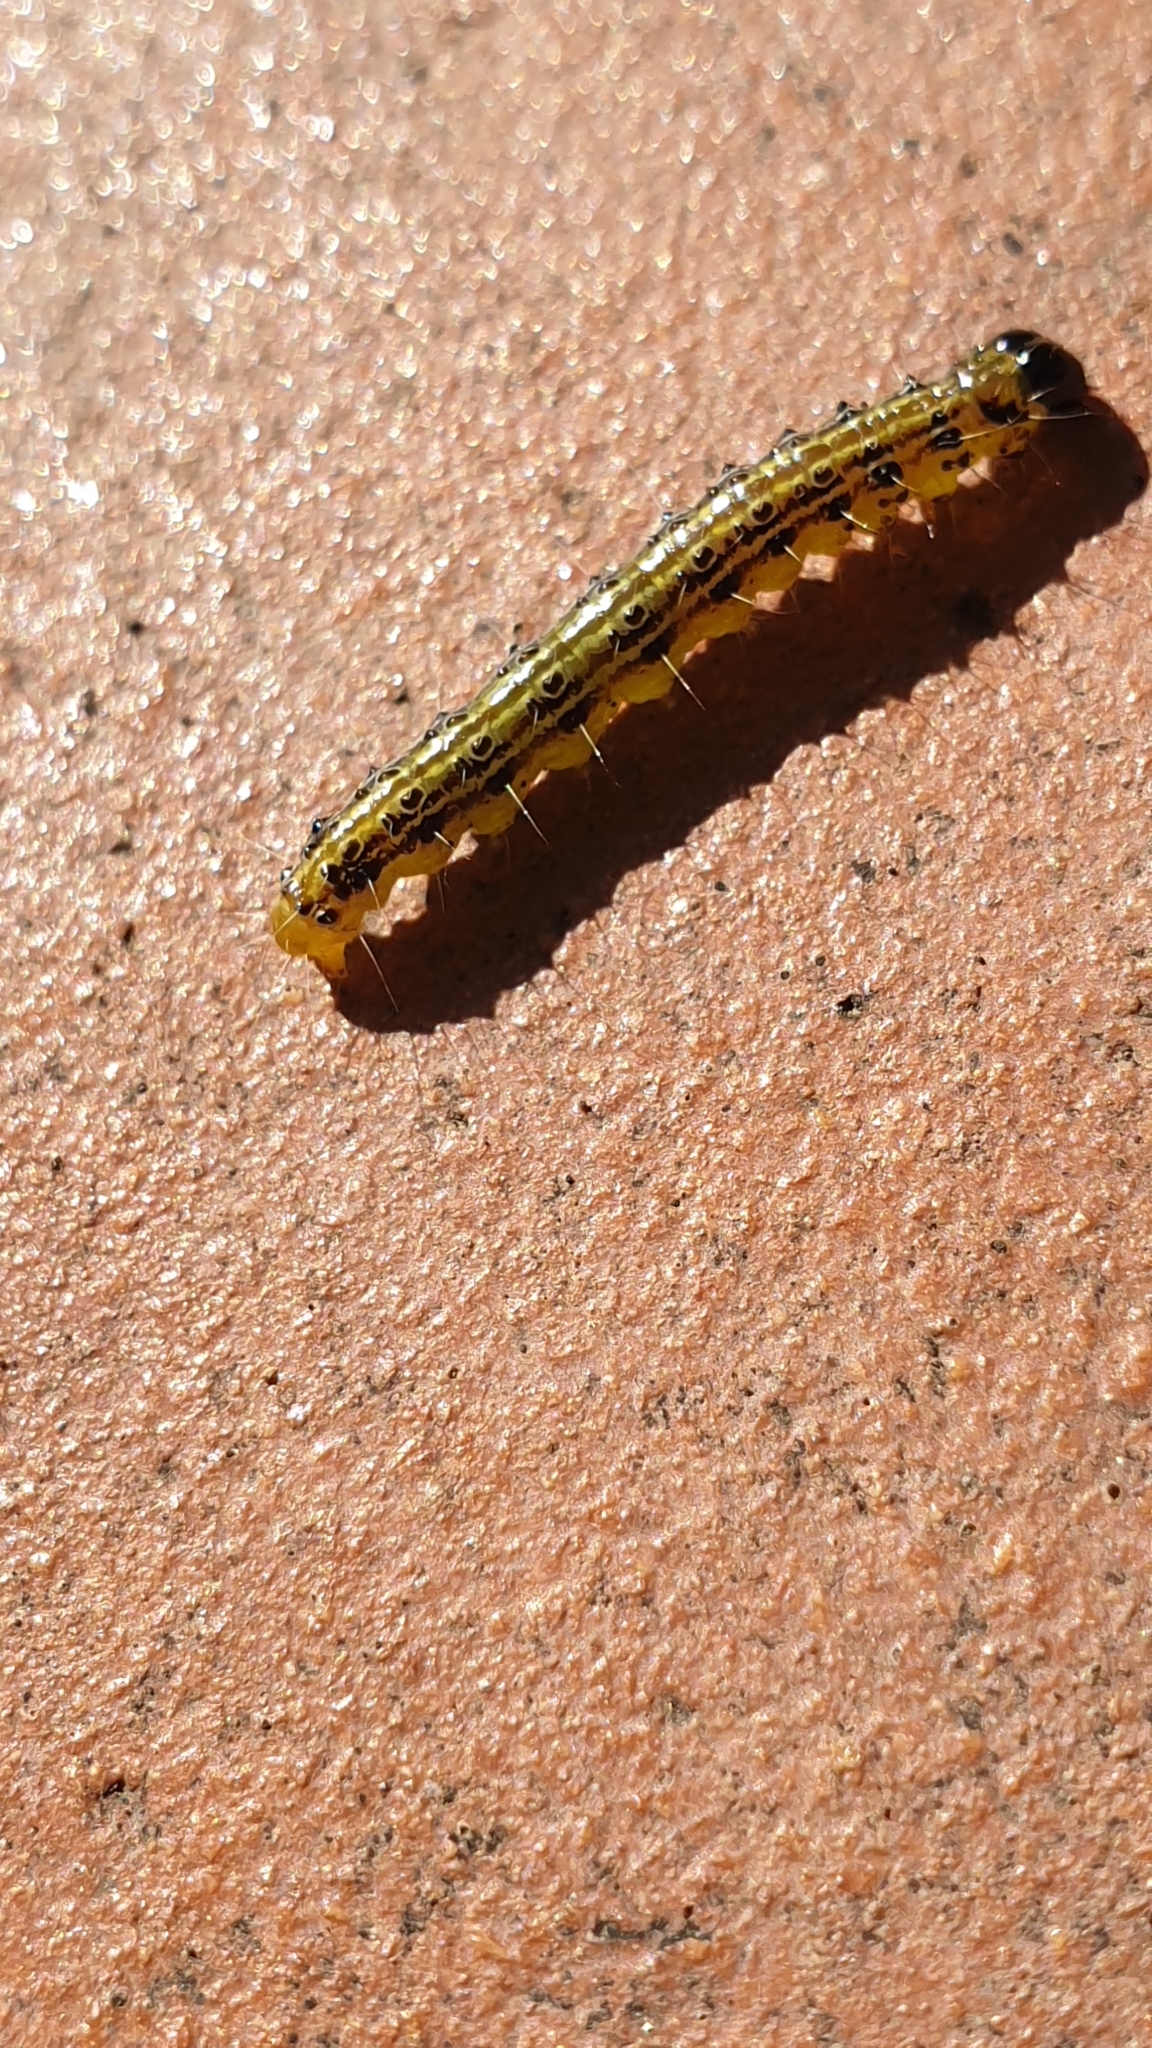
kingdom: Animalia
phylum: Arthropoda
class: Insecta
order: Lepidoptera
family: Crambidae
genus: Cydalima
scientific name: Cydalima perspectalis
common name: Box tree moth
